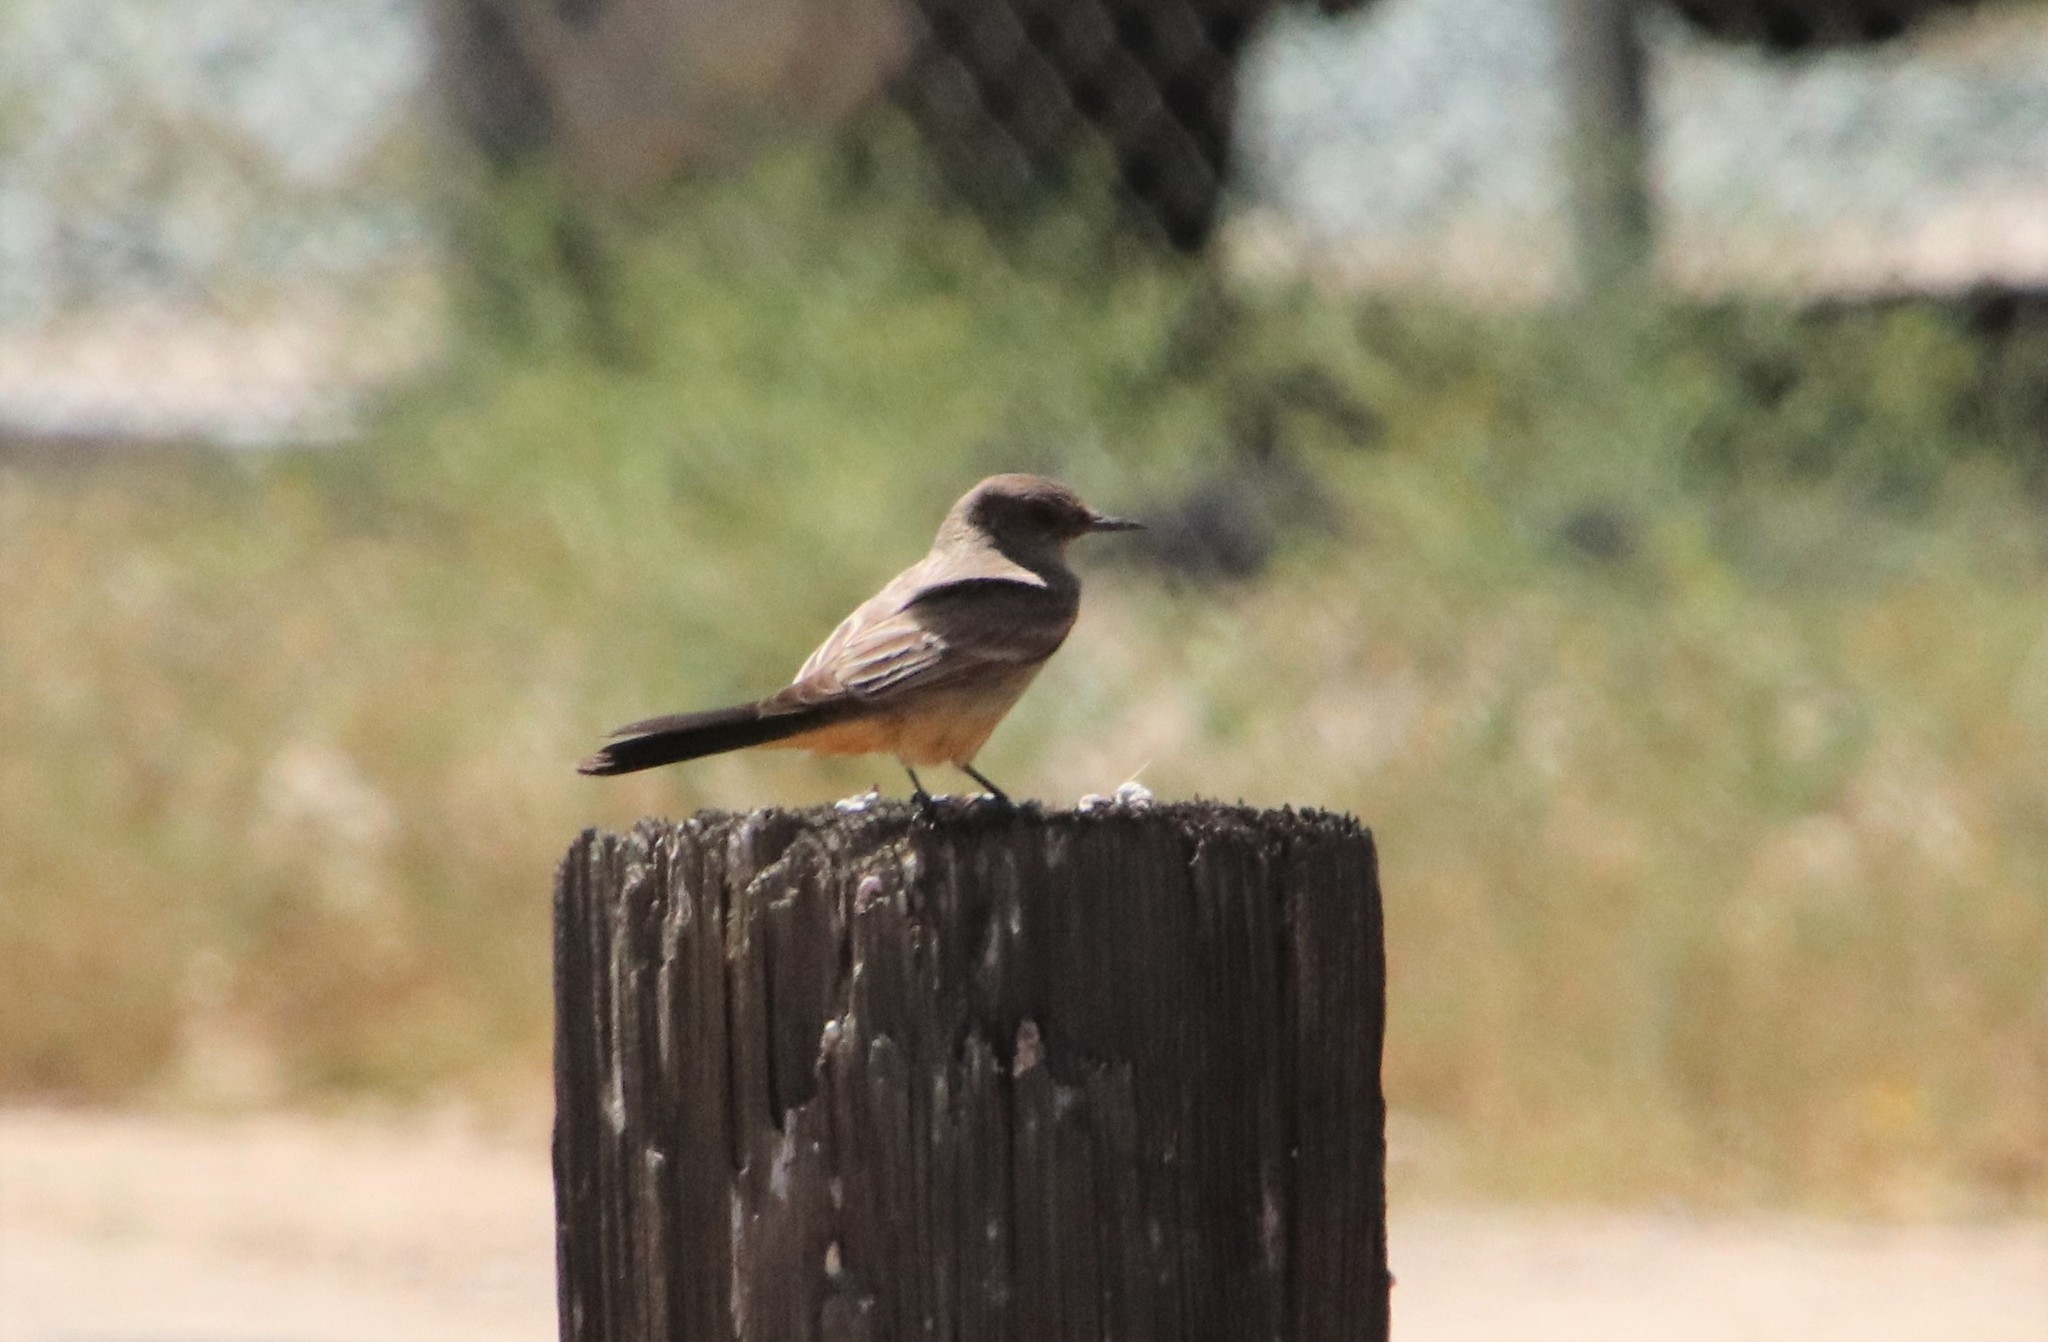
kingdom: Animalia
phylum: Chordata
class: Aves
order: Passeriformes
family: Tyrannidae
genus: Sayornis
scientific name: Sayornis saya
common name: Say's phoebe
